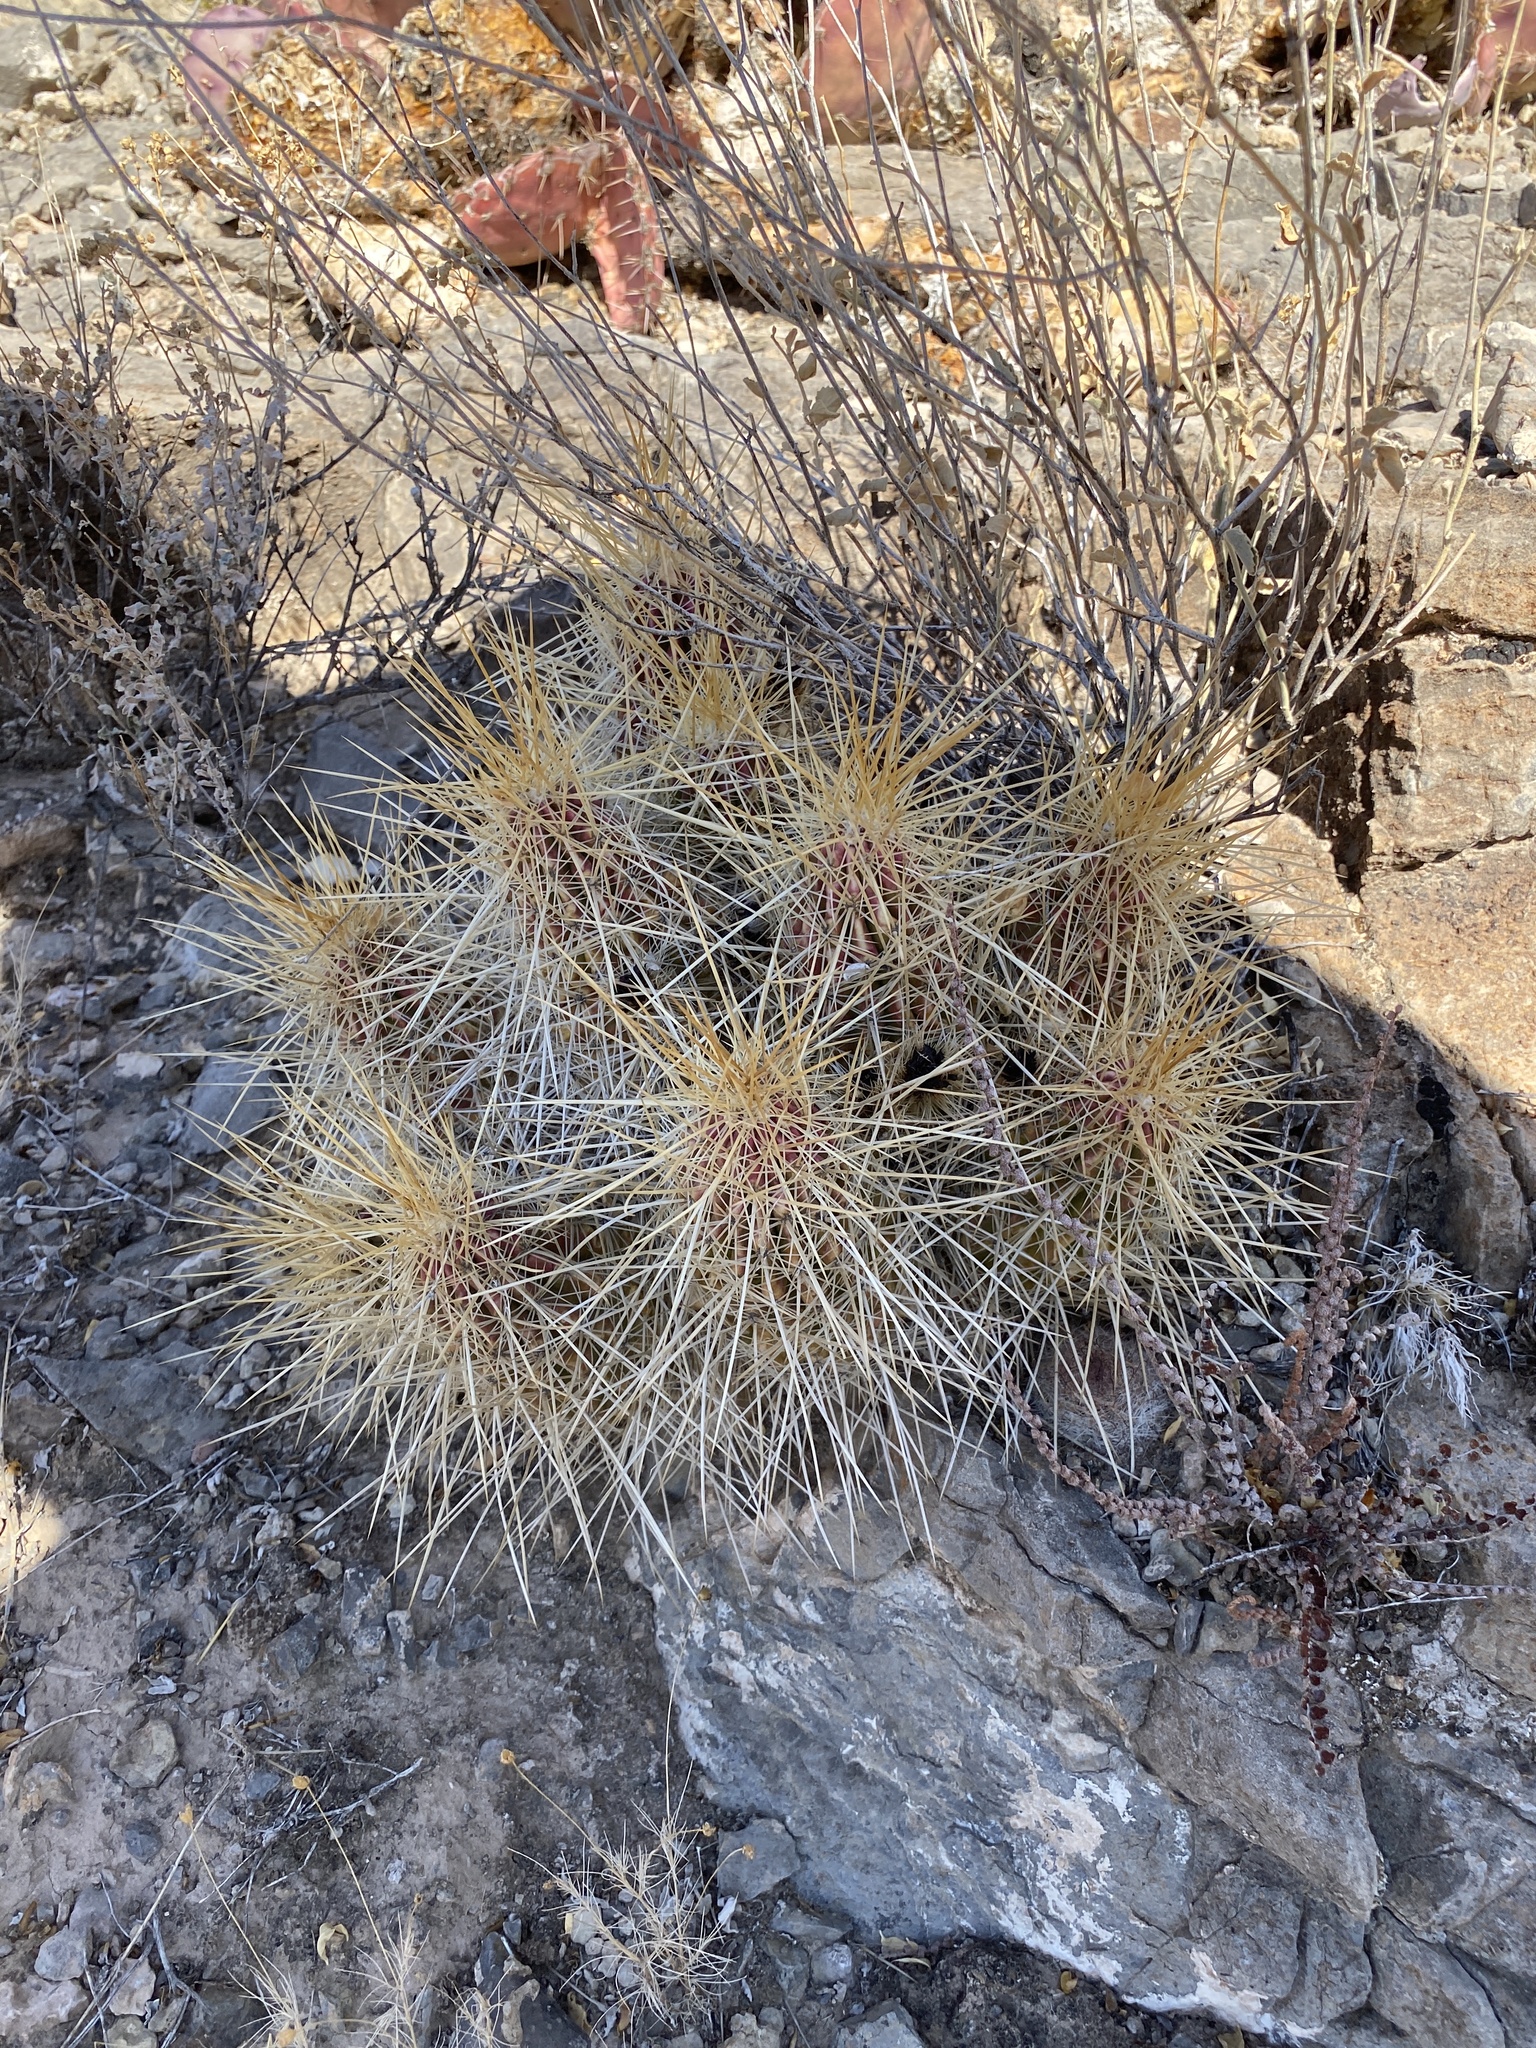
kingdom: Plantae
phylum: Tracheophyta
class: Magnoliopsida
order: Caryophyllales
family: Cactaceae
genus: Echinocereus
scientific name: Echinocereus stramineus
